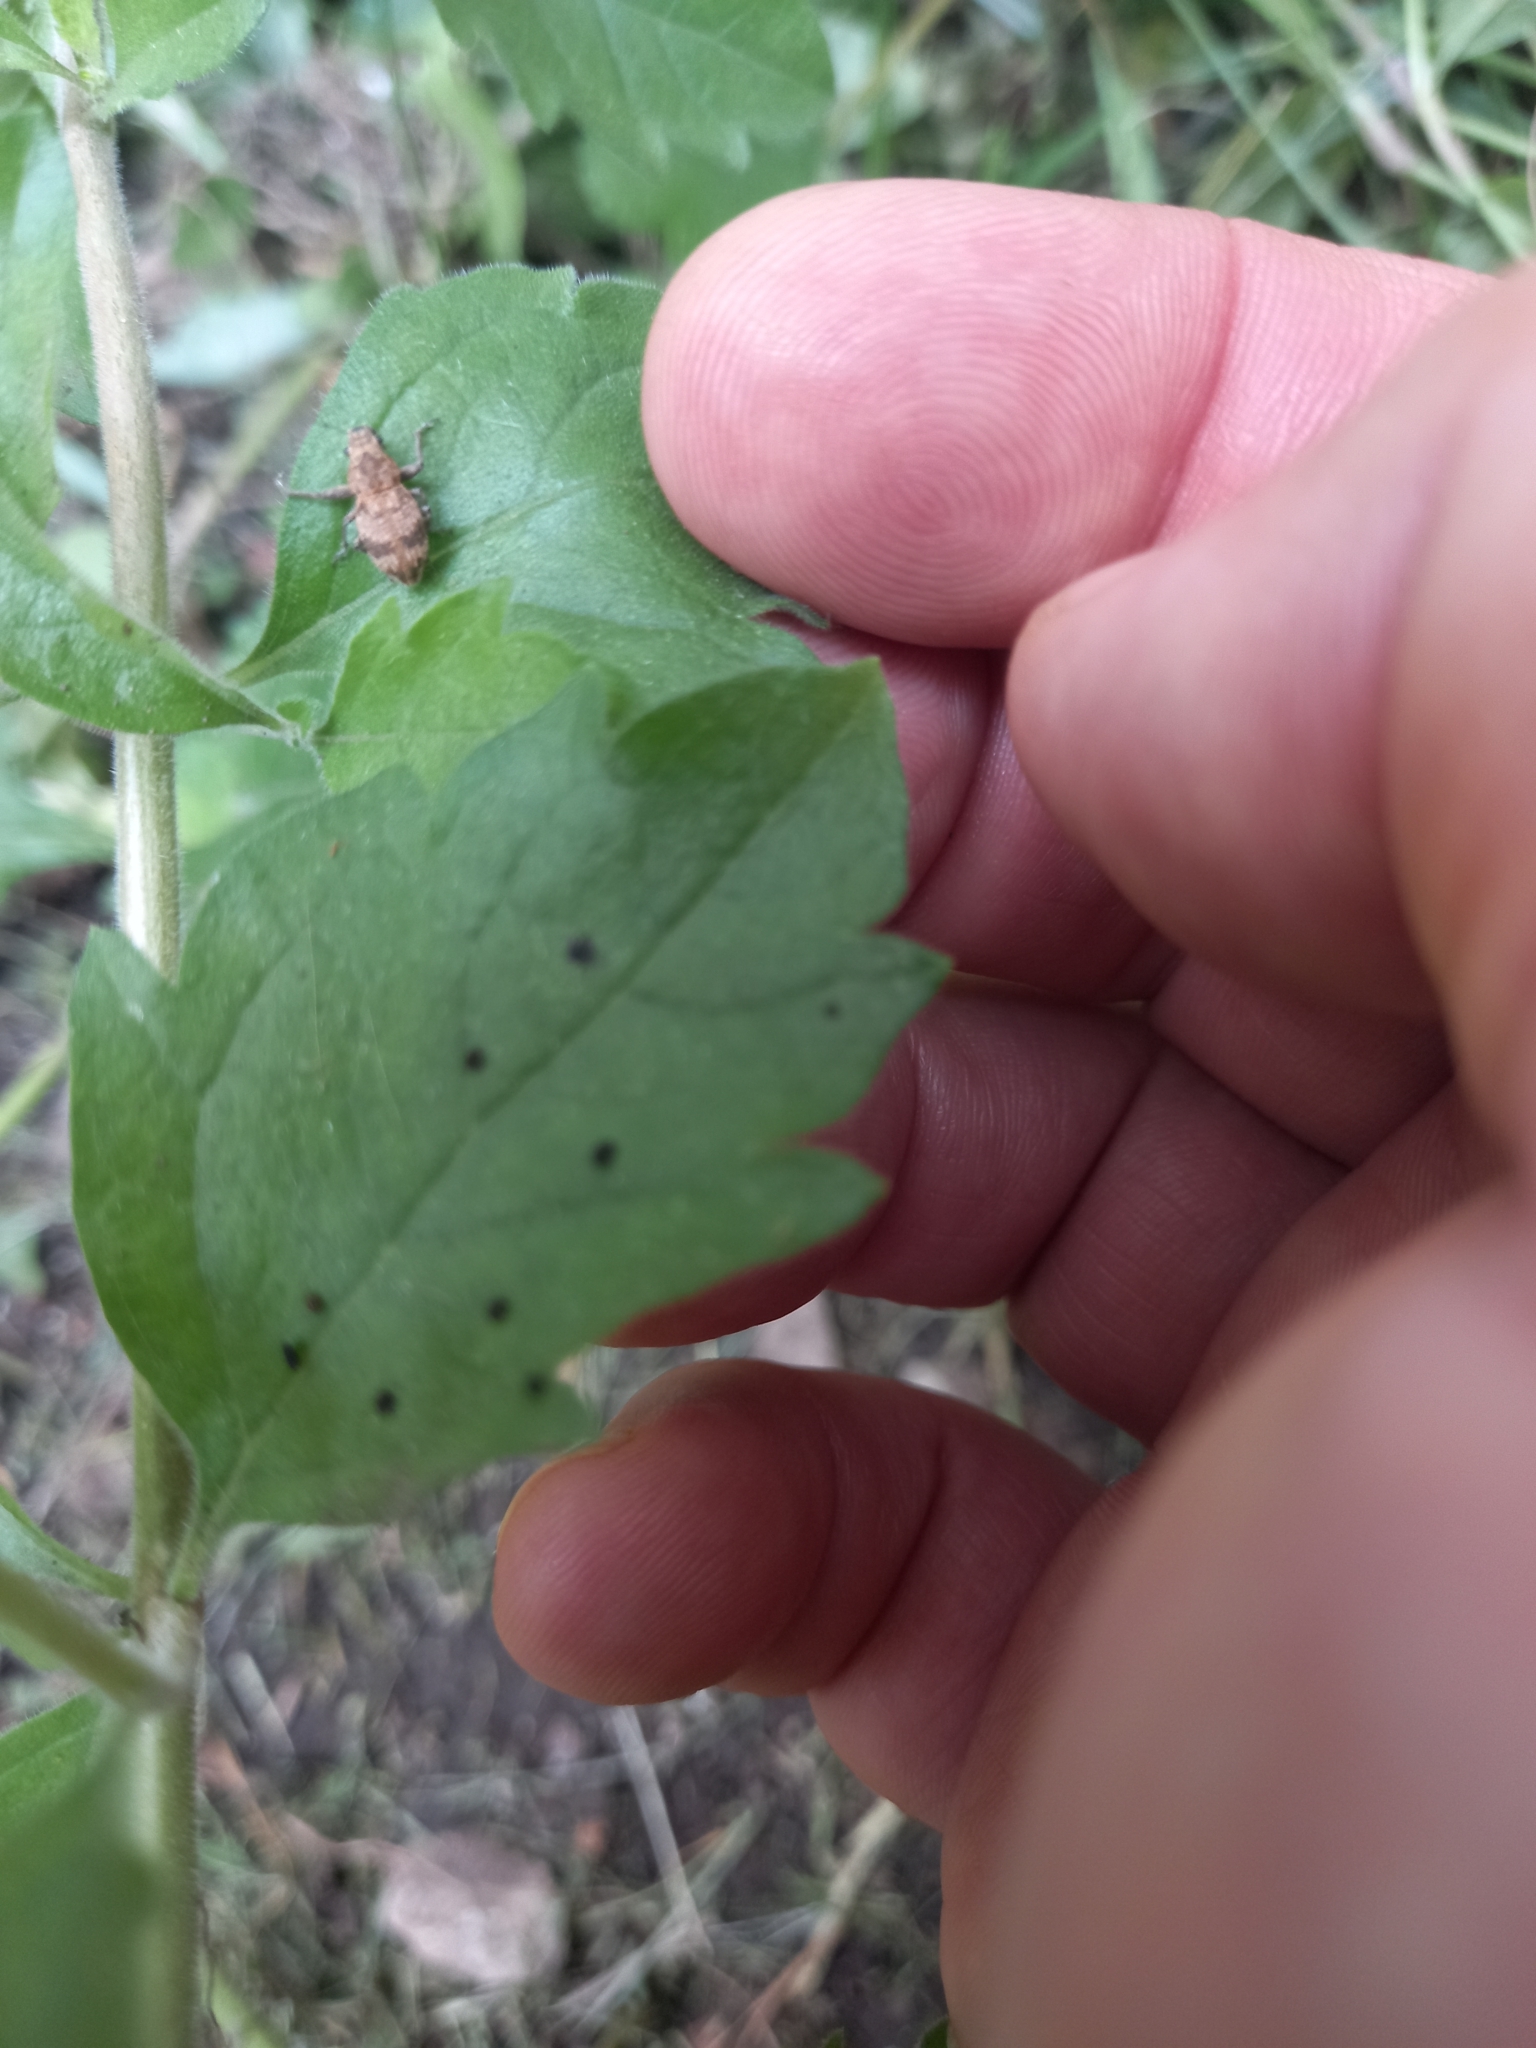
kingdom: Animalia
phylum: Arthropoda
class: Insecta
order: Coleoptera
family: Curculionidae
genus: Pantomorus
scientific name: Pantomorus
